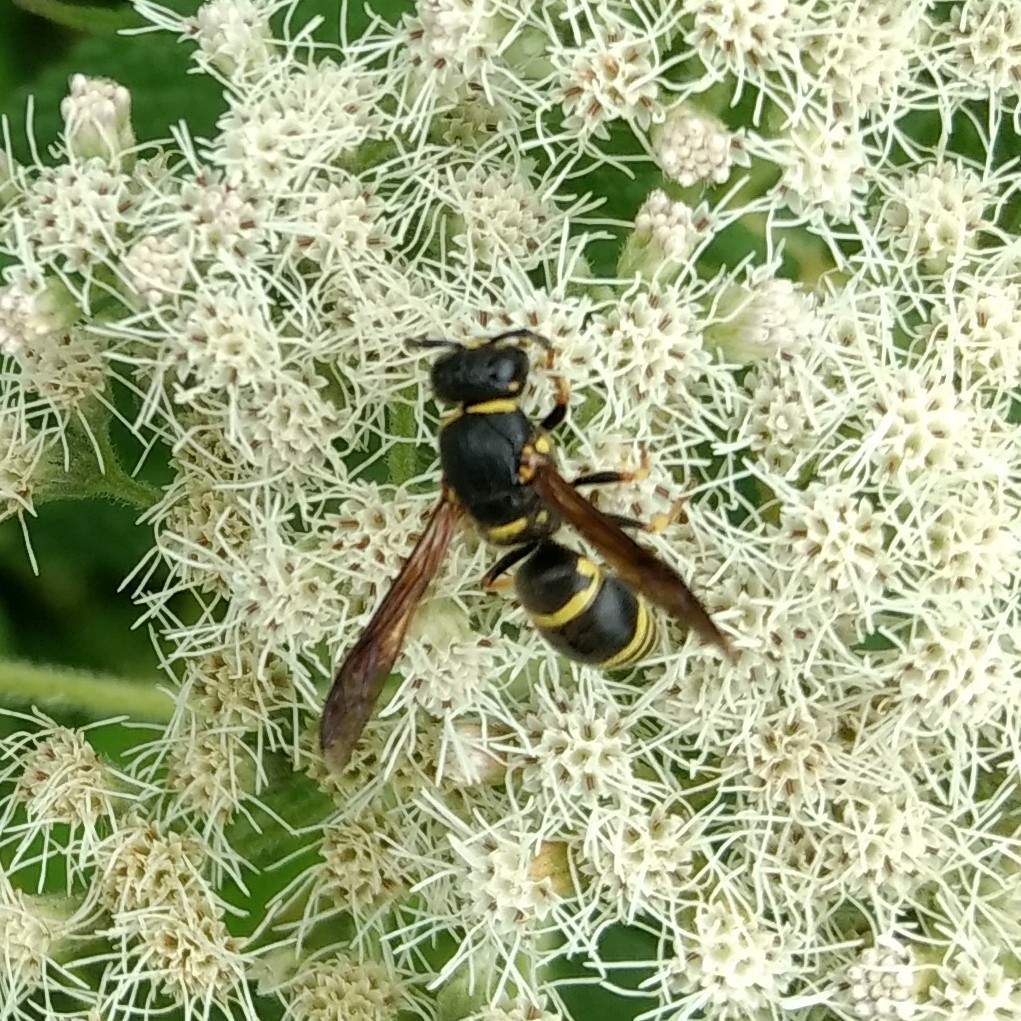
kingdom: Animalia
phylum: Arthropoda
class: Insecta
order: Hymenoptera
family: Eumenidae
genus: Euodynerus
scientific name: Euodynerus foraminatus
